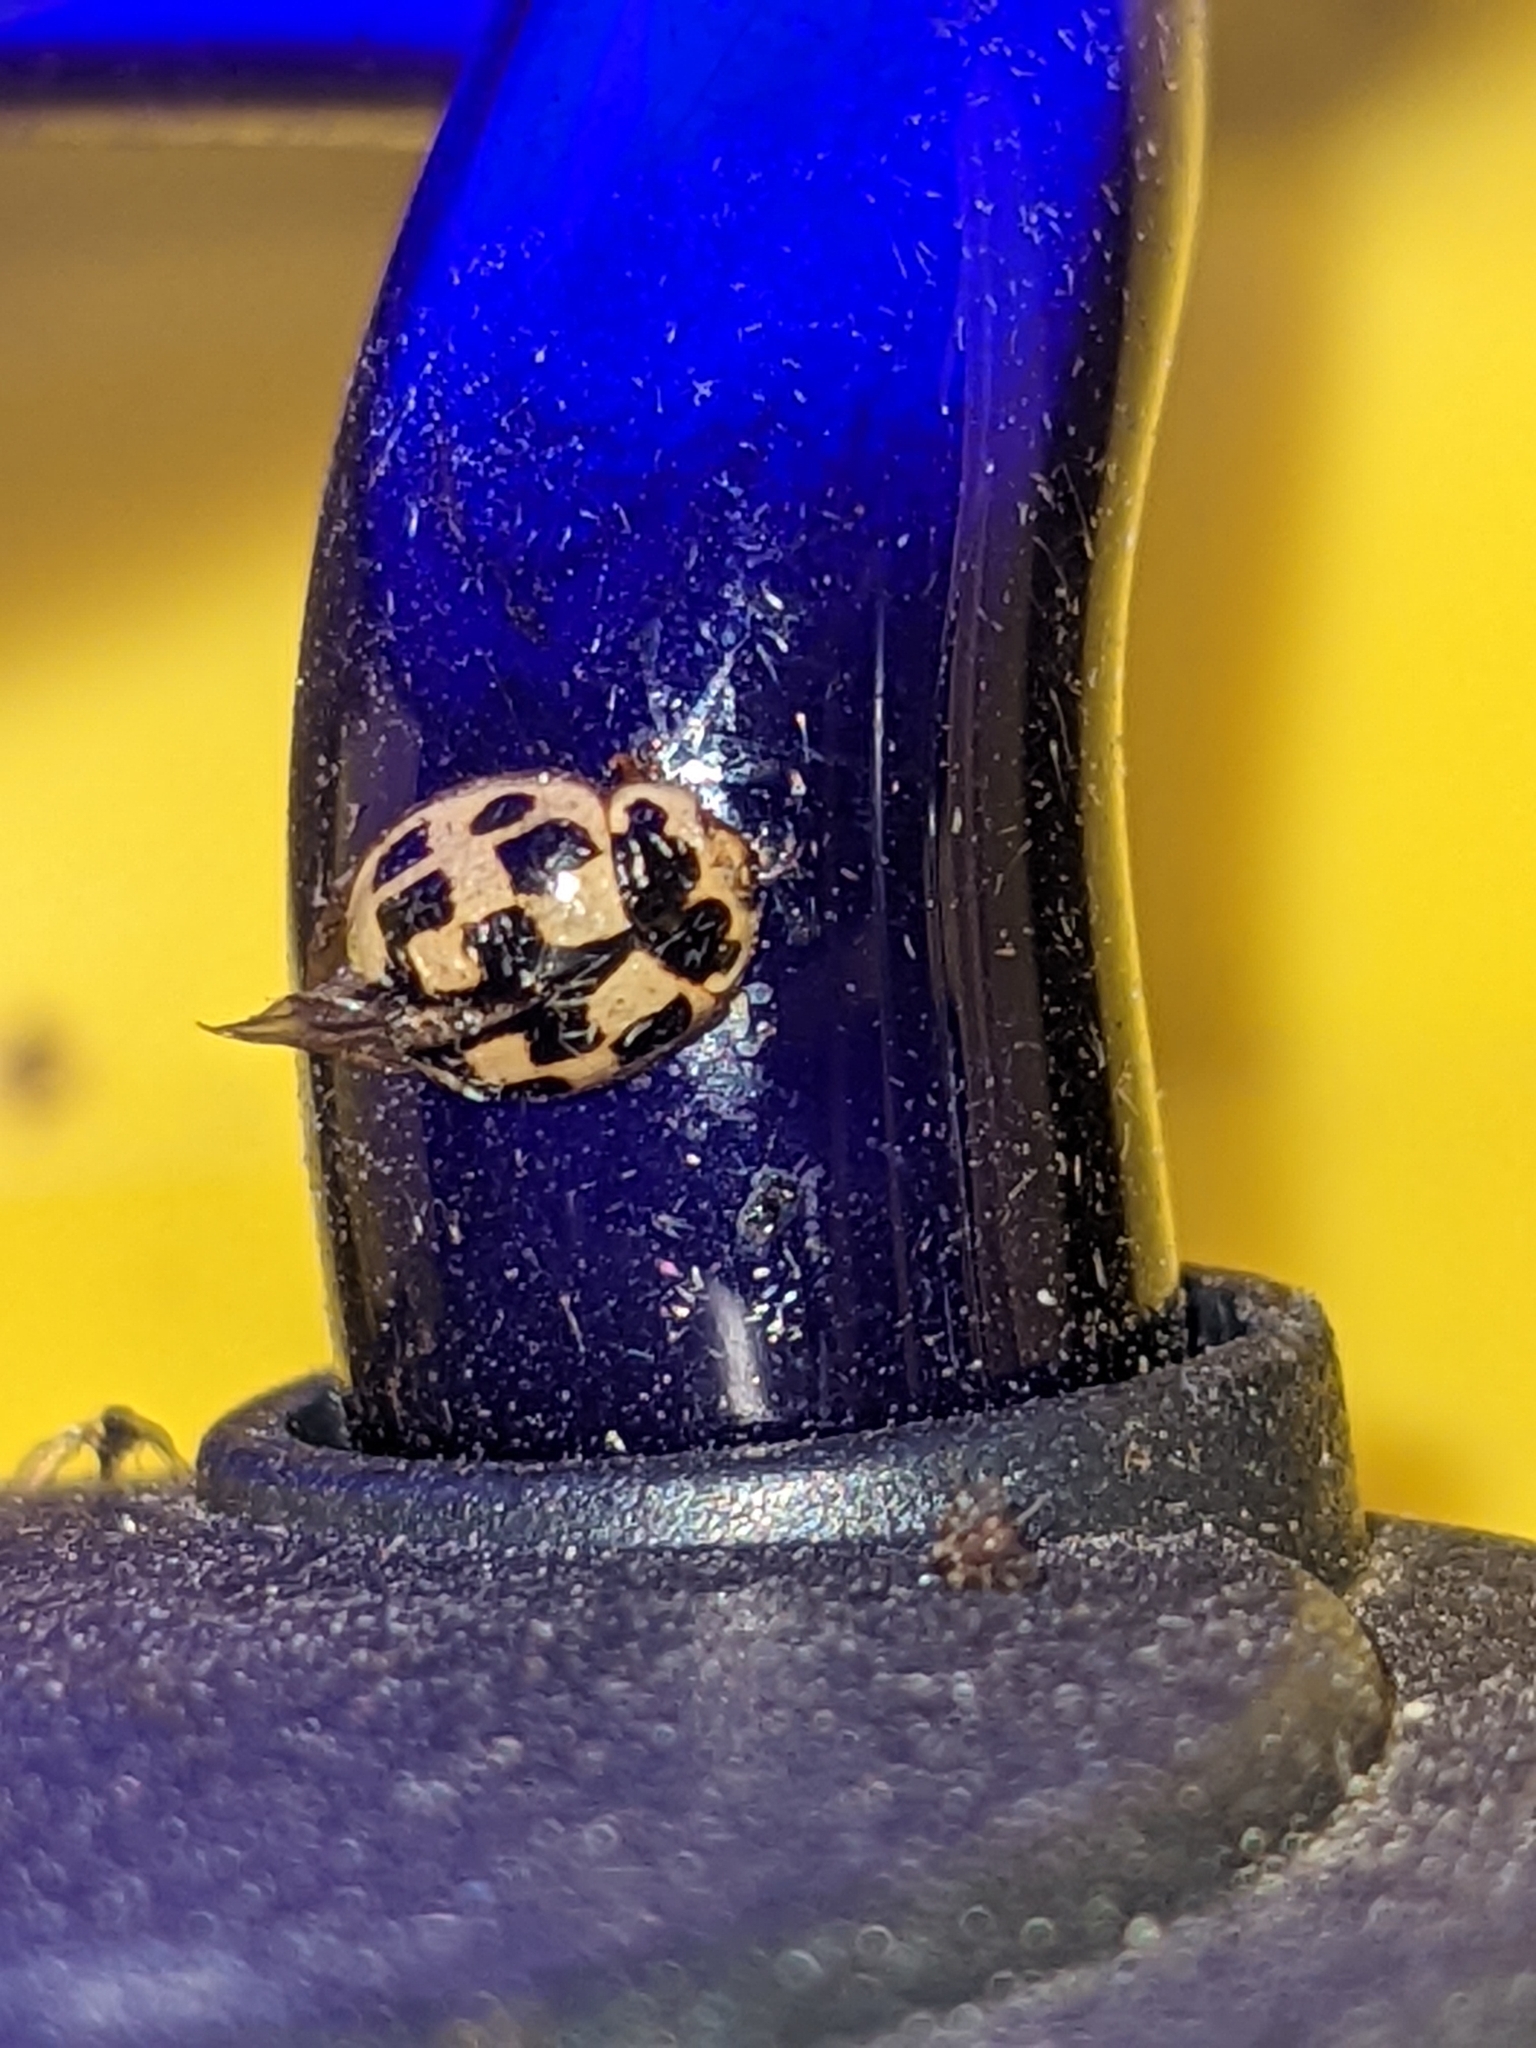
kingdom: Animalia
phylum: Arthropoda
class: Insecta
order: Coleoptera
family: Coccinellidae
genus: Propylaea
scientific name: Propylaea quatuordecimpunctata
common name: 14-spotted ladybird beetle
